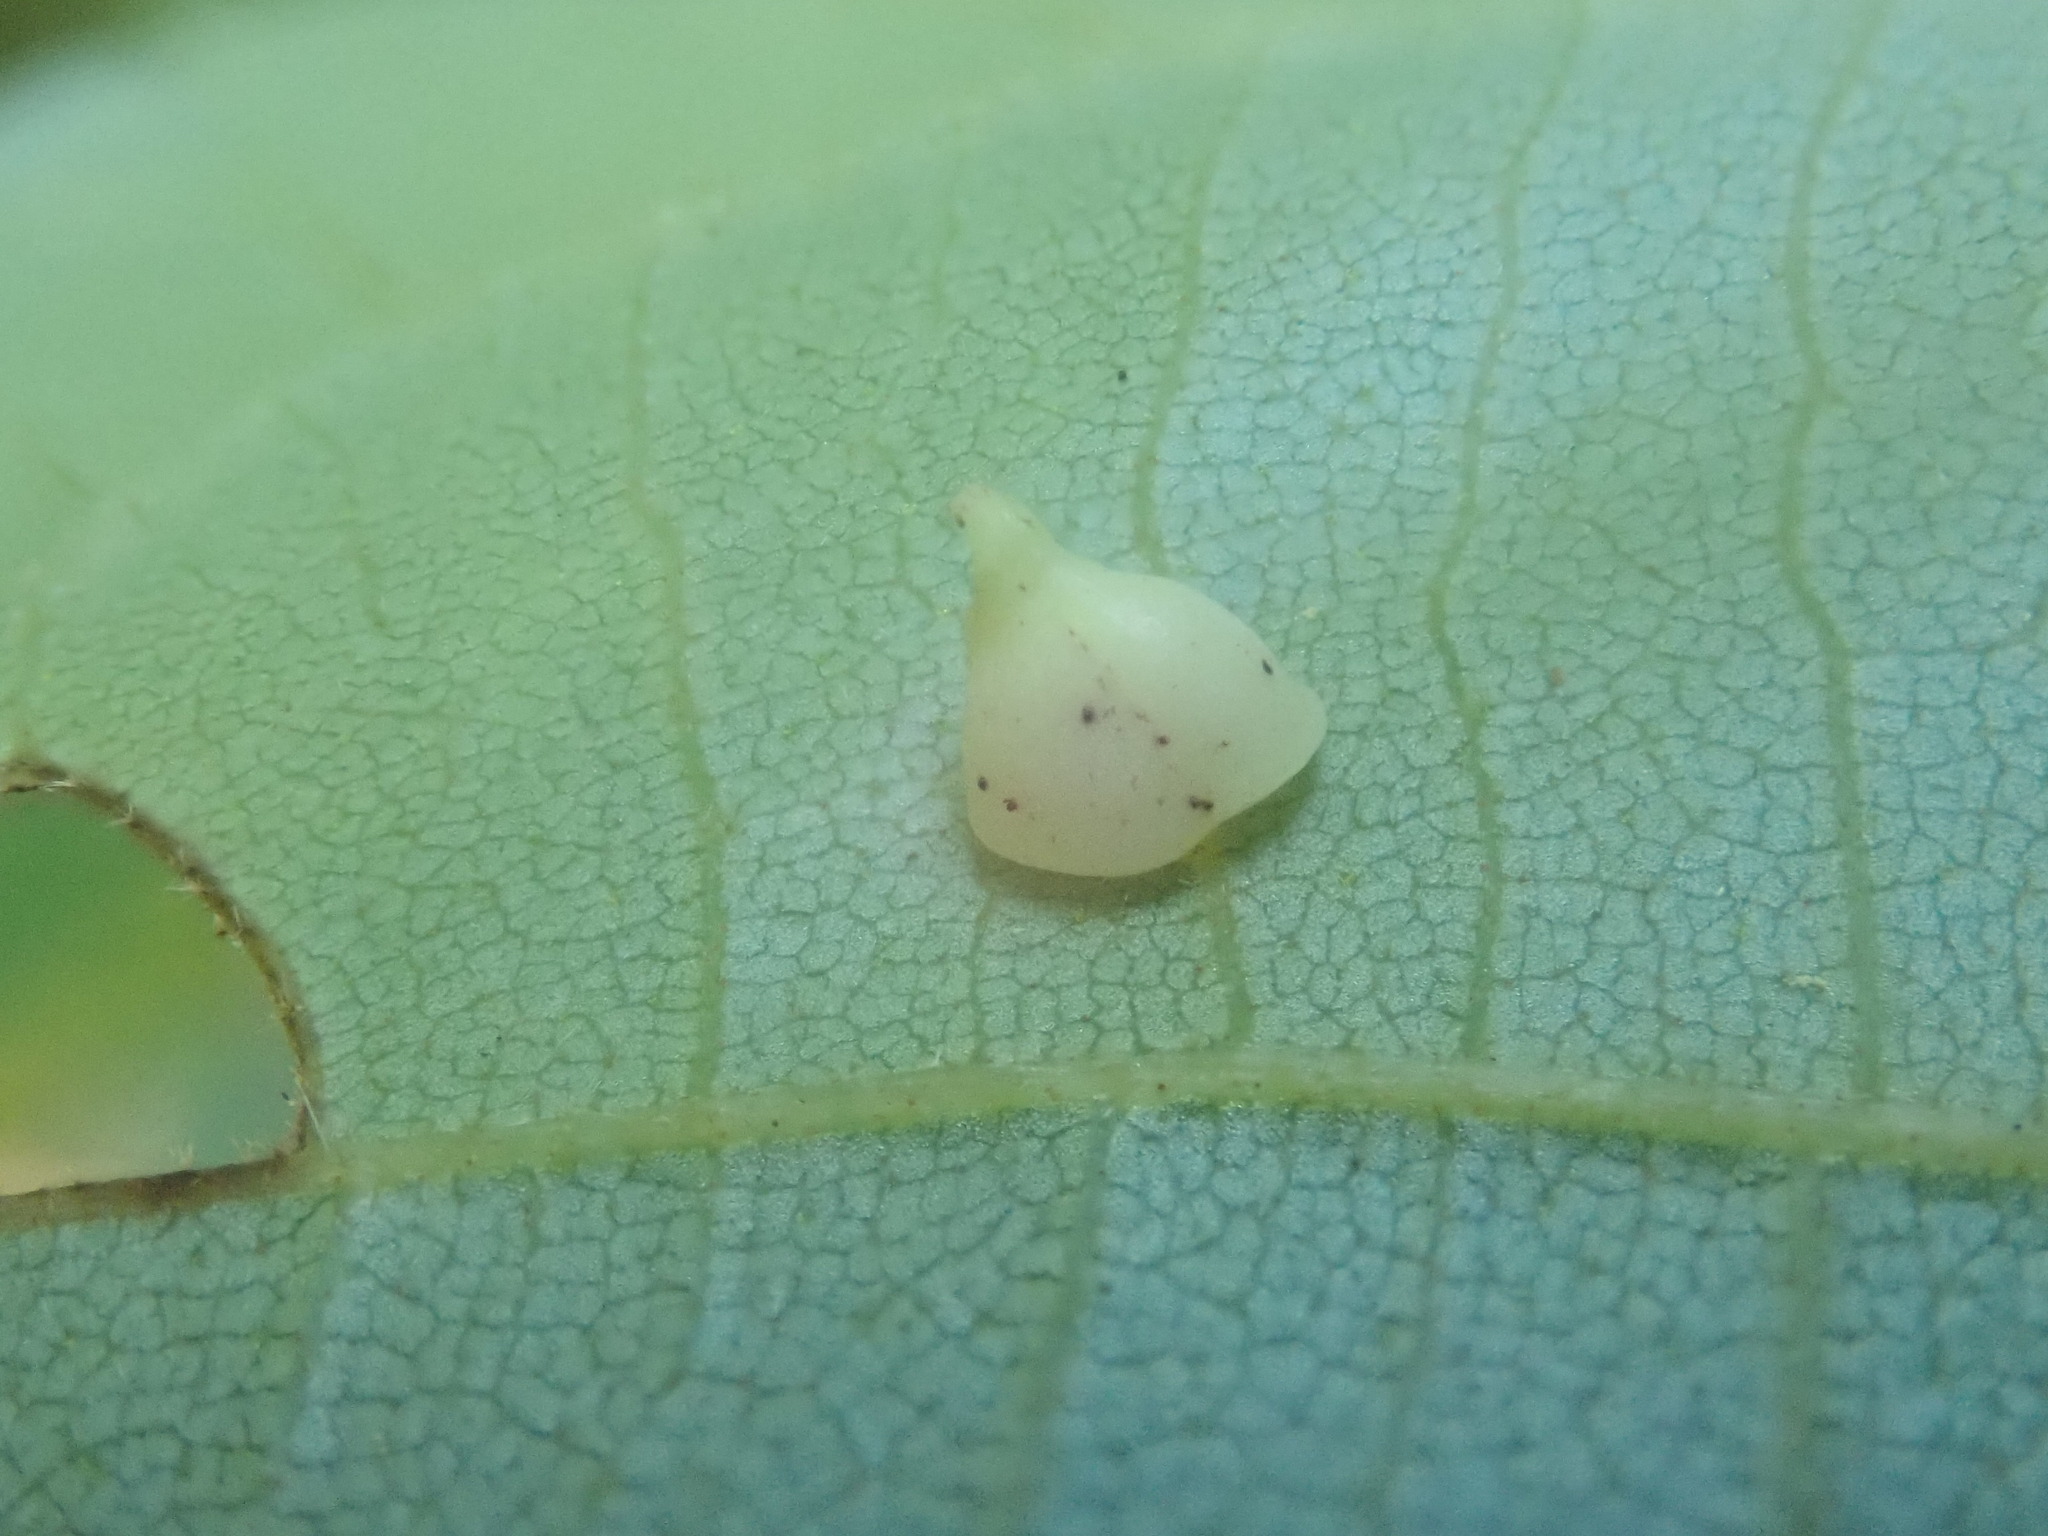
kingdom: Animalia
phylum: Arthropoda
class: Insecta
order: Diptera
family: Cecidomyiidae
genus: Caryomyia
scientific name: Caryomyia sanguinolenta
